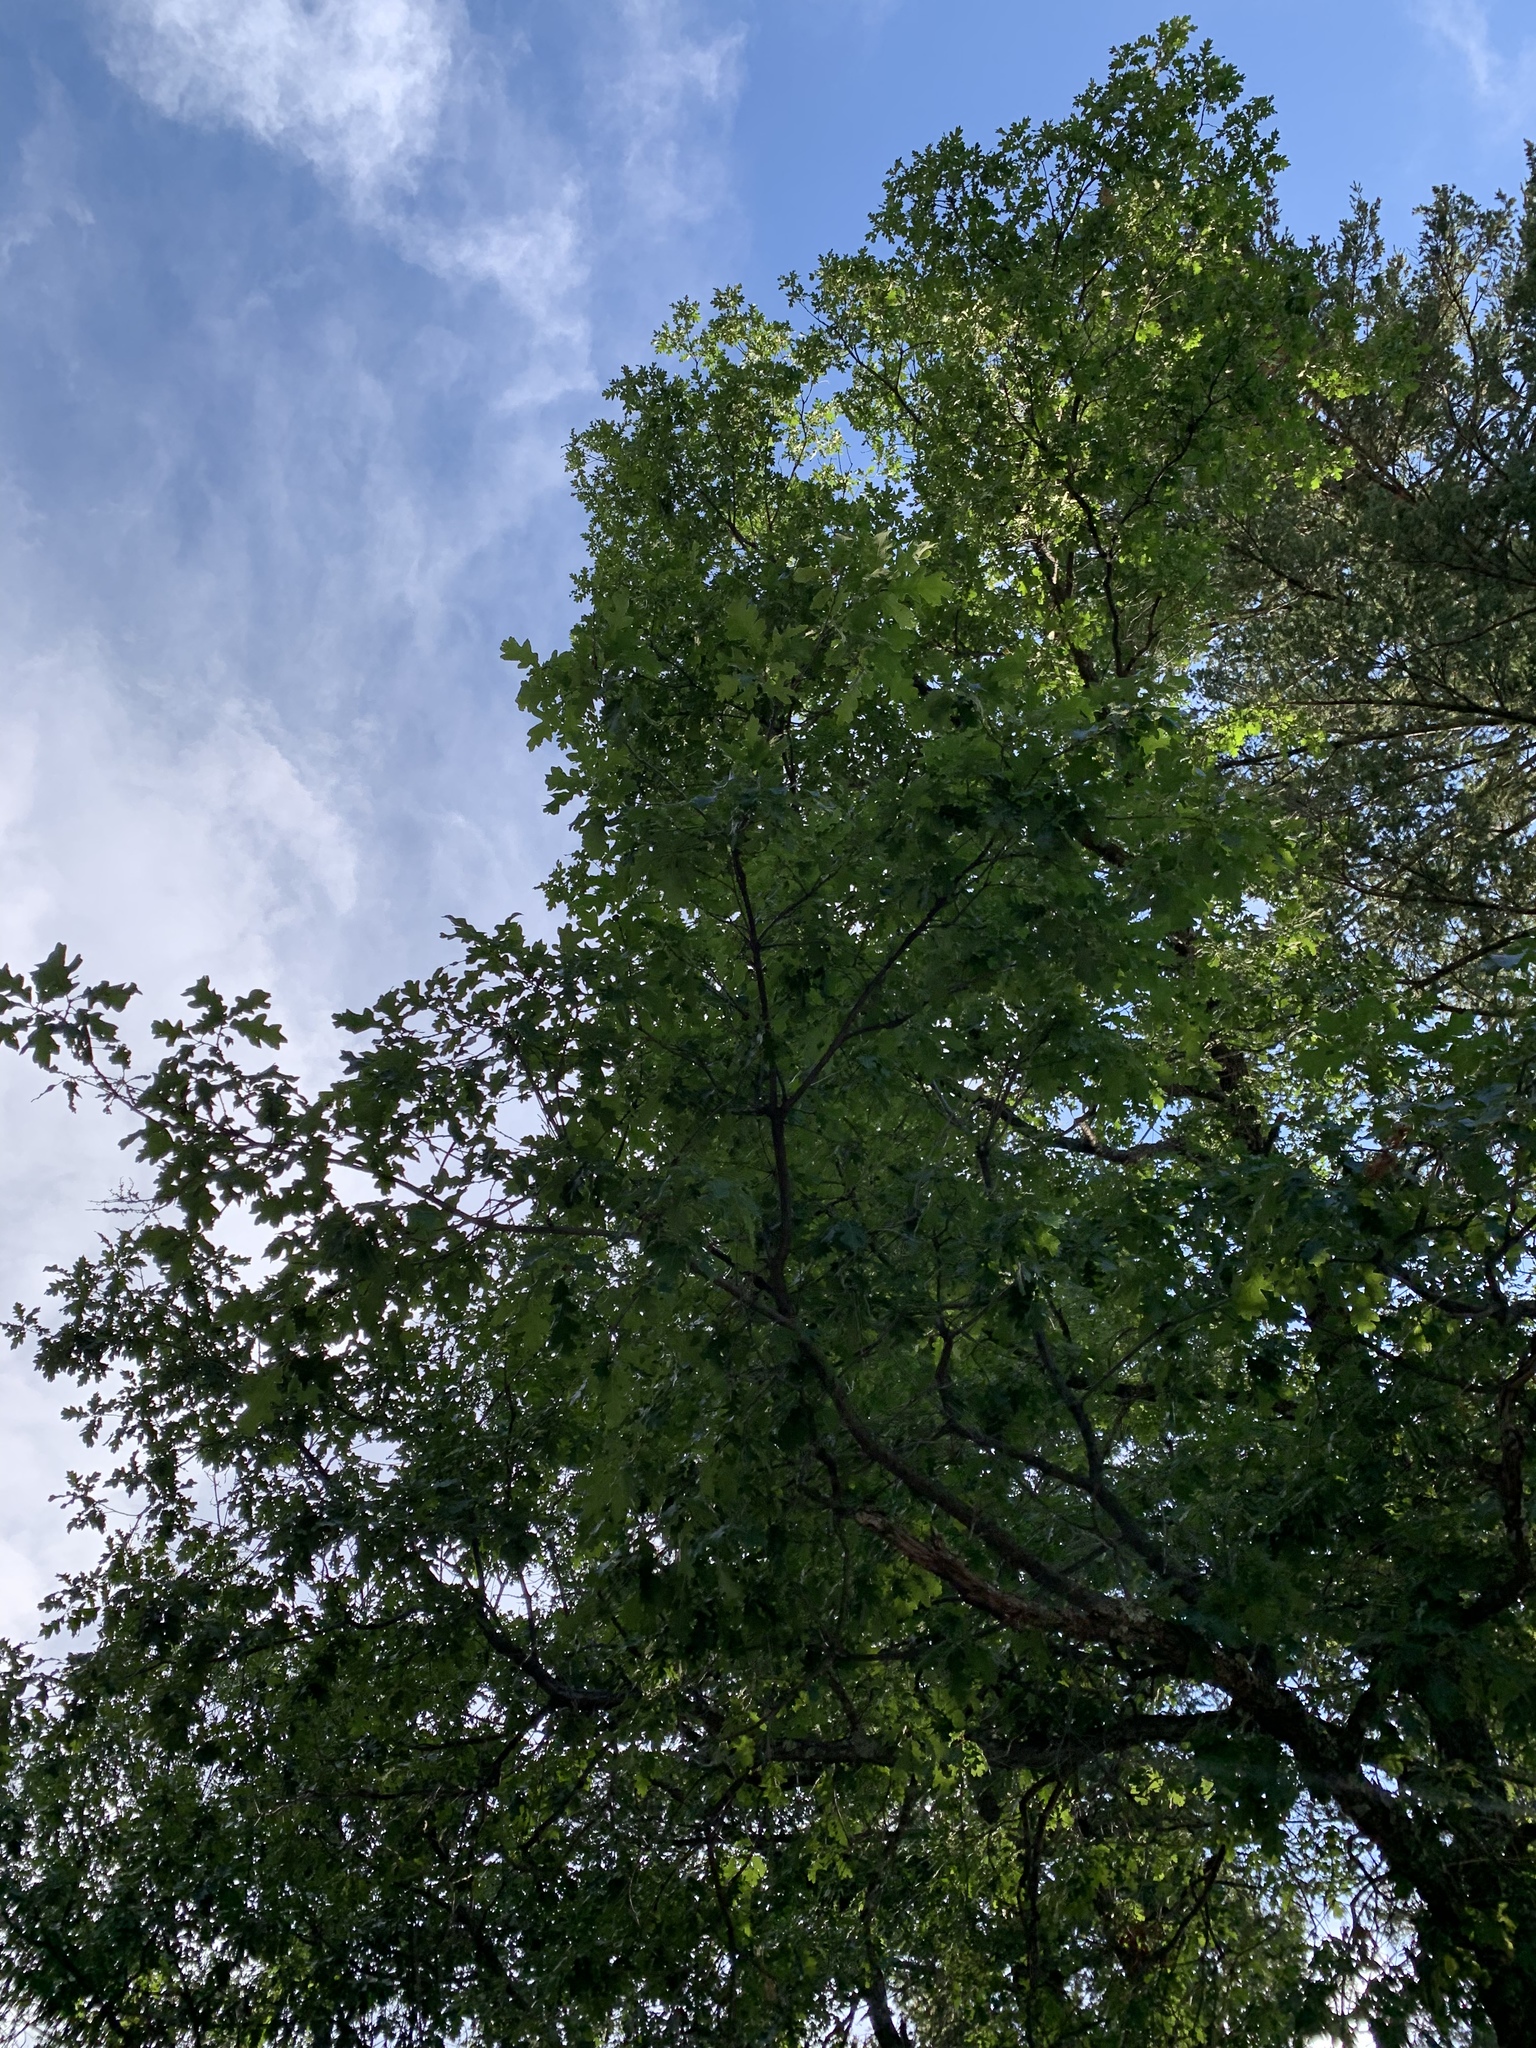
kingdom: Plantae
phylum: Tracheophyta
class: Magnoliopsida
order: Fagales
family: Fagaceae
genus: Quercus
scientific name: Quercus gambelii
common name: Gambel oak
